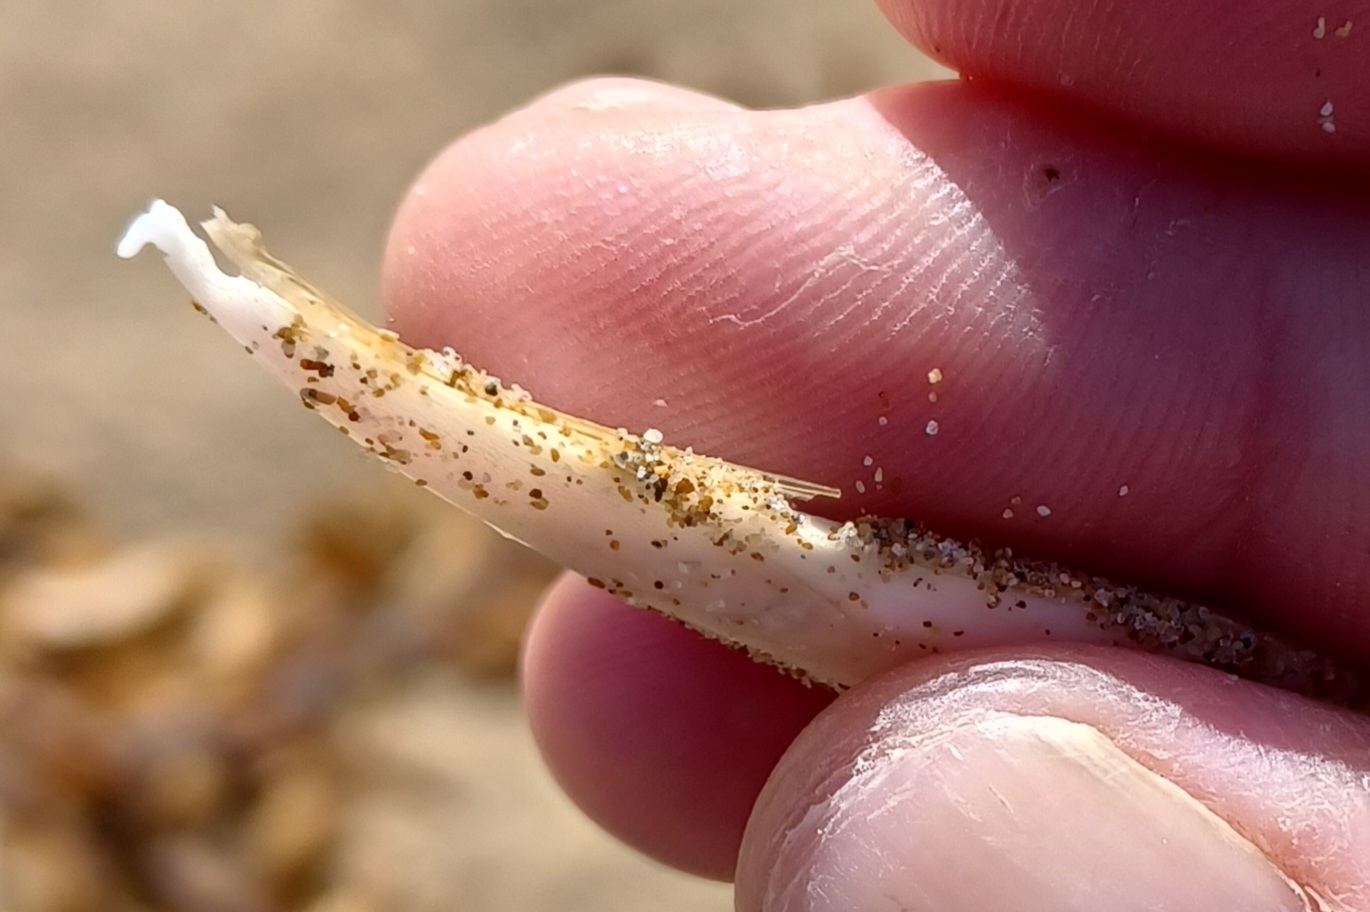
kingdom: Animalia
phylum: Mollusca
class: Cephalopoda
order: Sepiida
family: Sepiidae
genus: Doratosepion
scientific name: Doratosepion braggi
